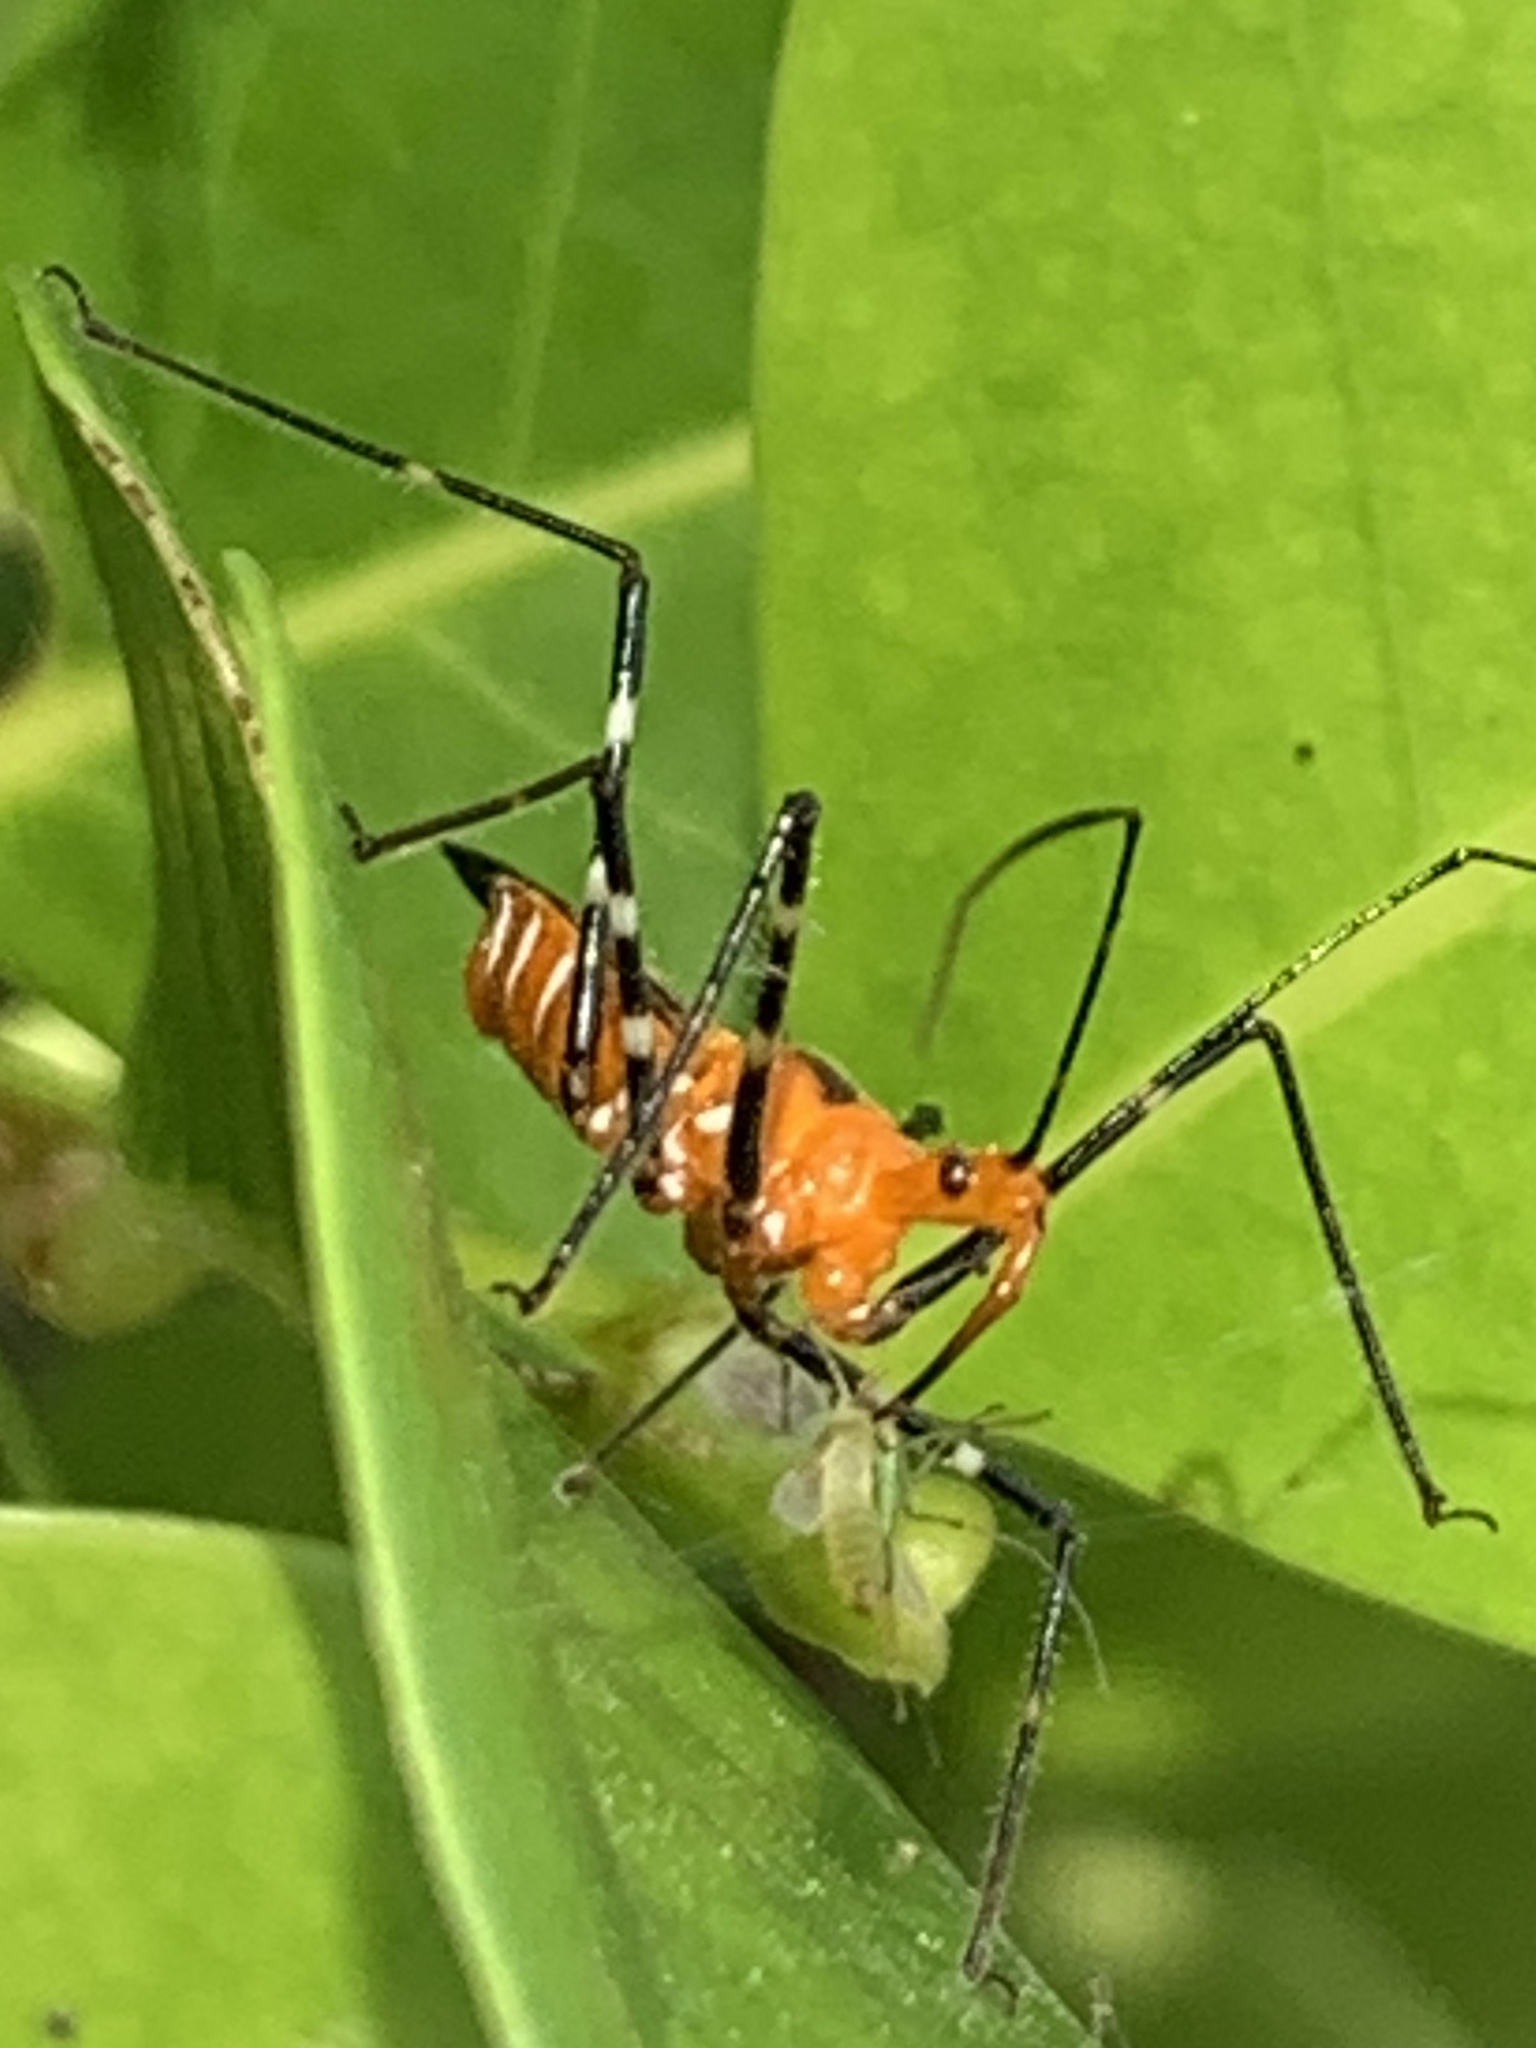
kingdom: Animalia
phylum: Arthropoda
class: Insecta
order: Hemiptera
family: Reduviidae
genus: Zelus
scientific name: Zelus longipes
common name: Milkweed assassin bug
